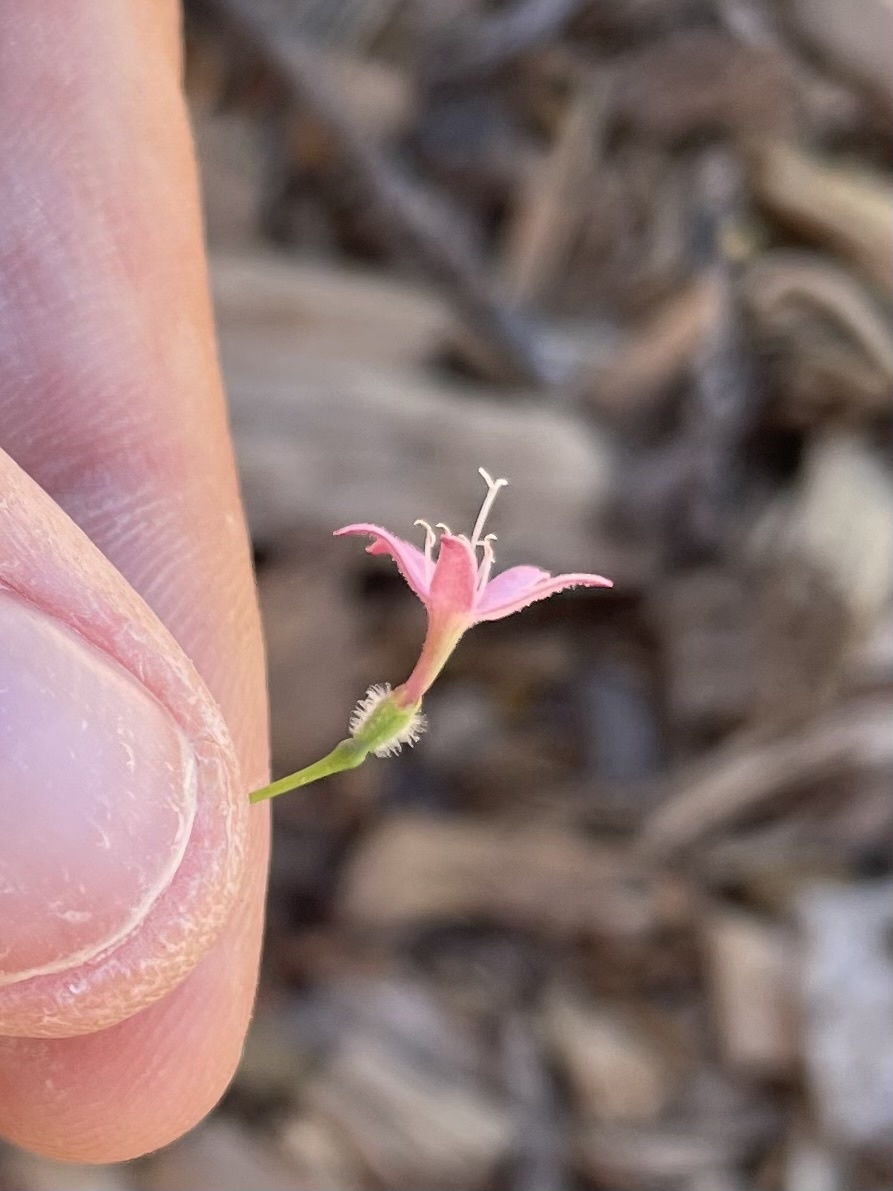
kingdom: Plantae
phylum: Tracheophyta
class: Magnoliopsida
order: Gentianales
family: Rubiaceae
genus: Kelloggia
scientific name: Kelloggia galioides
